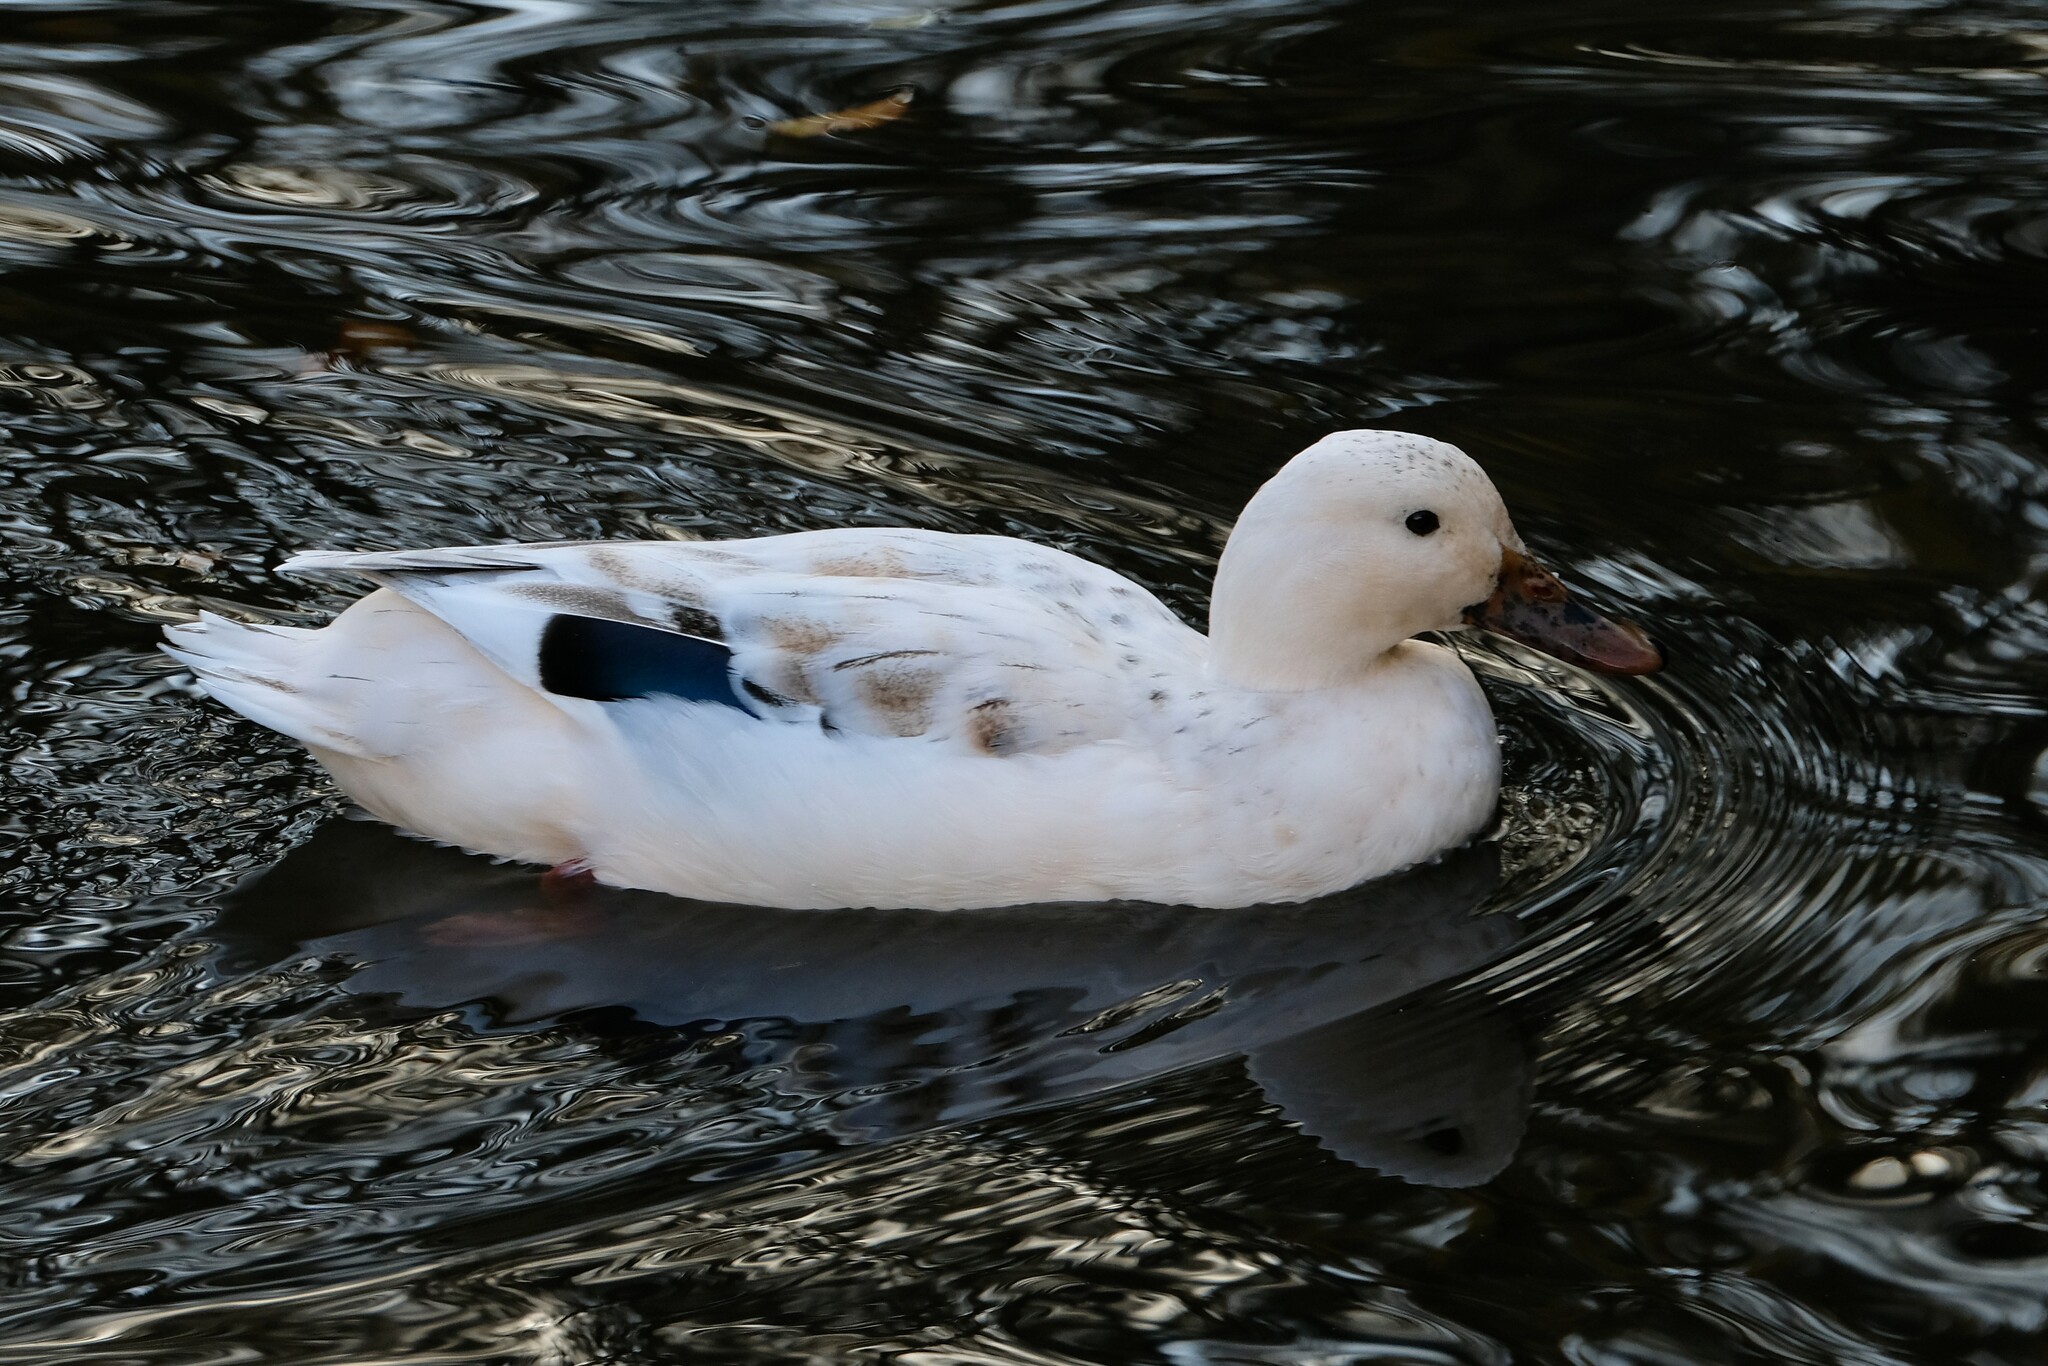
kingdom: Animalia
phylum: Chordata
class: Aves
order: Anseriformes
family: Anatidae
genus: Anas
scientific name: Anas platyrhynchos
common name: Mallard
